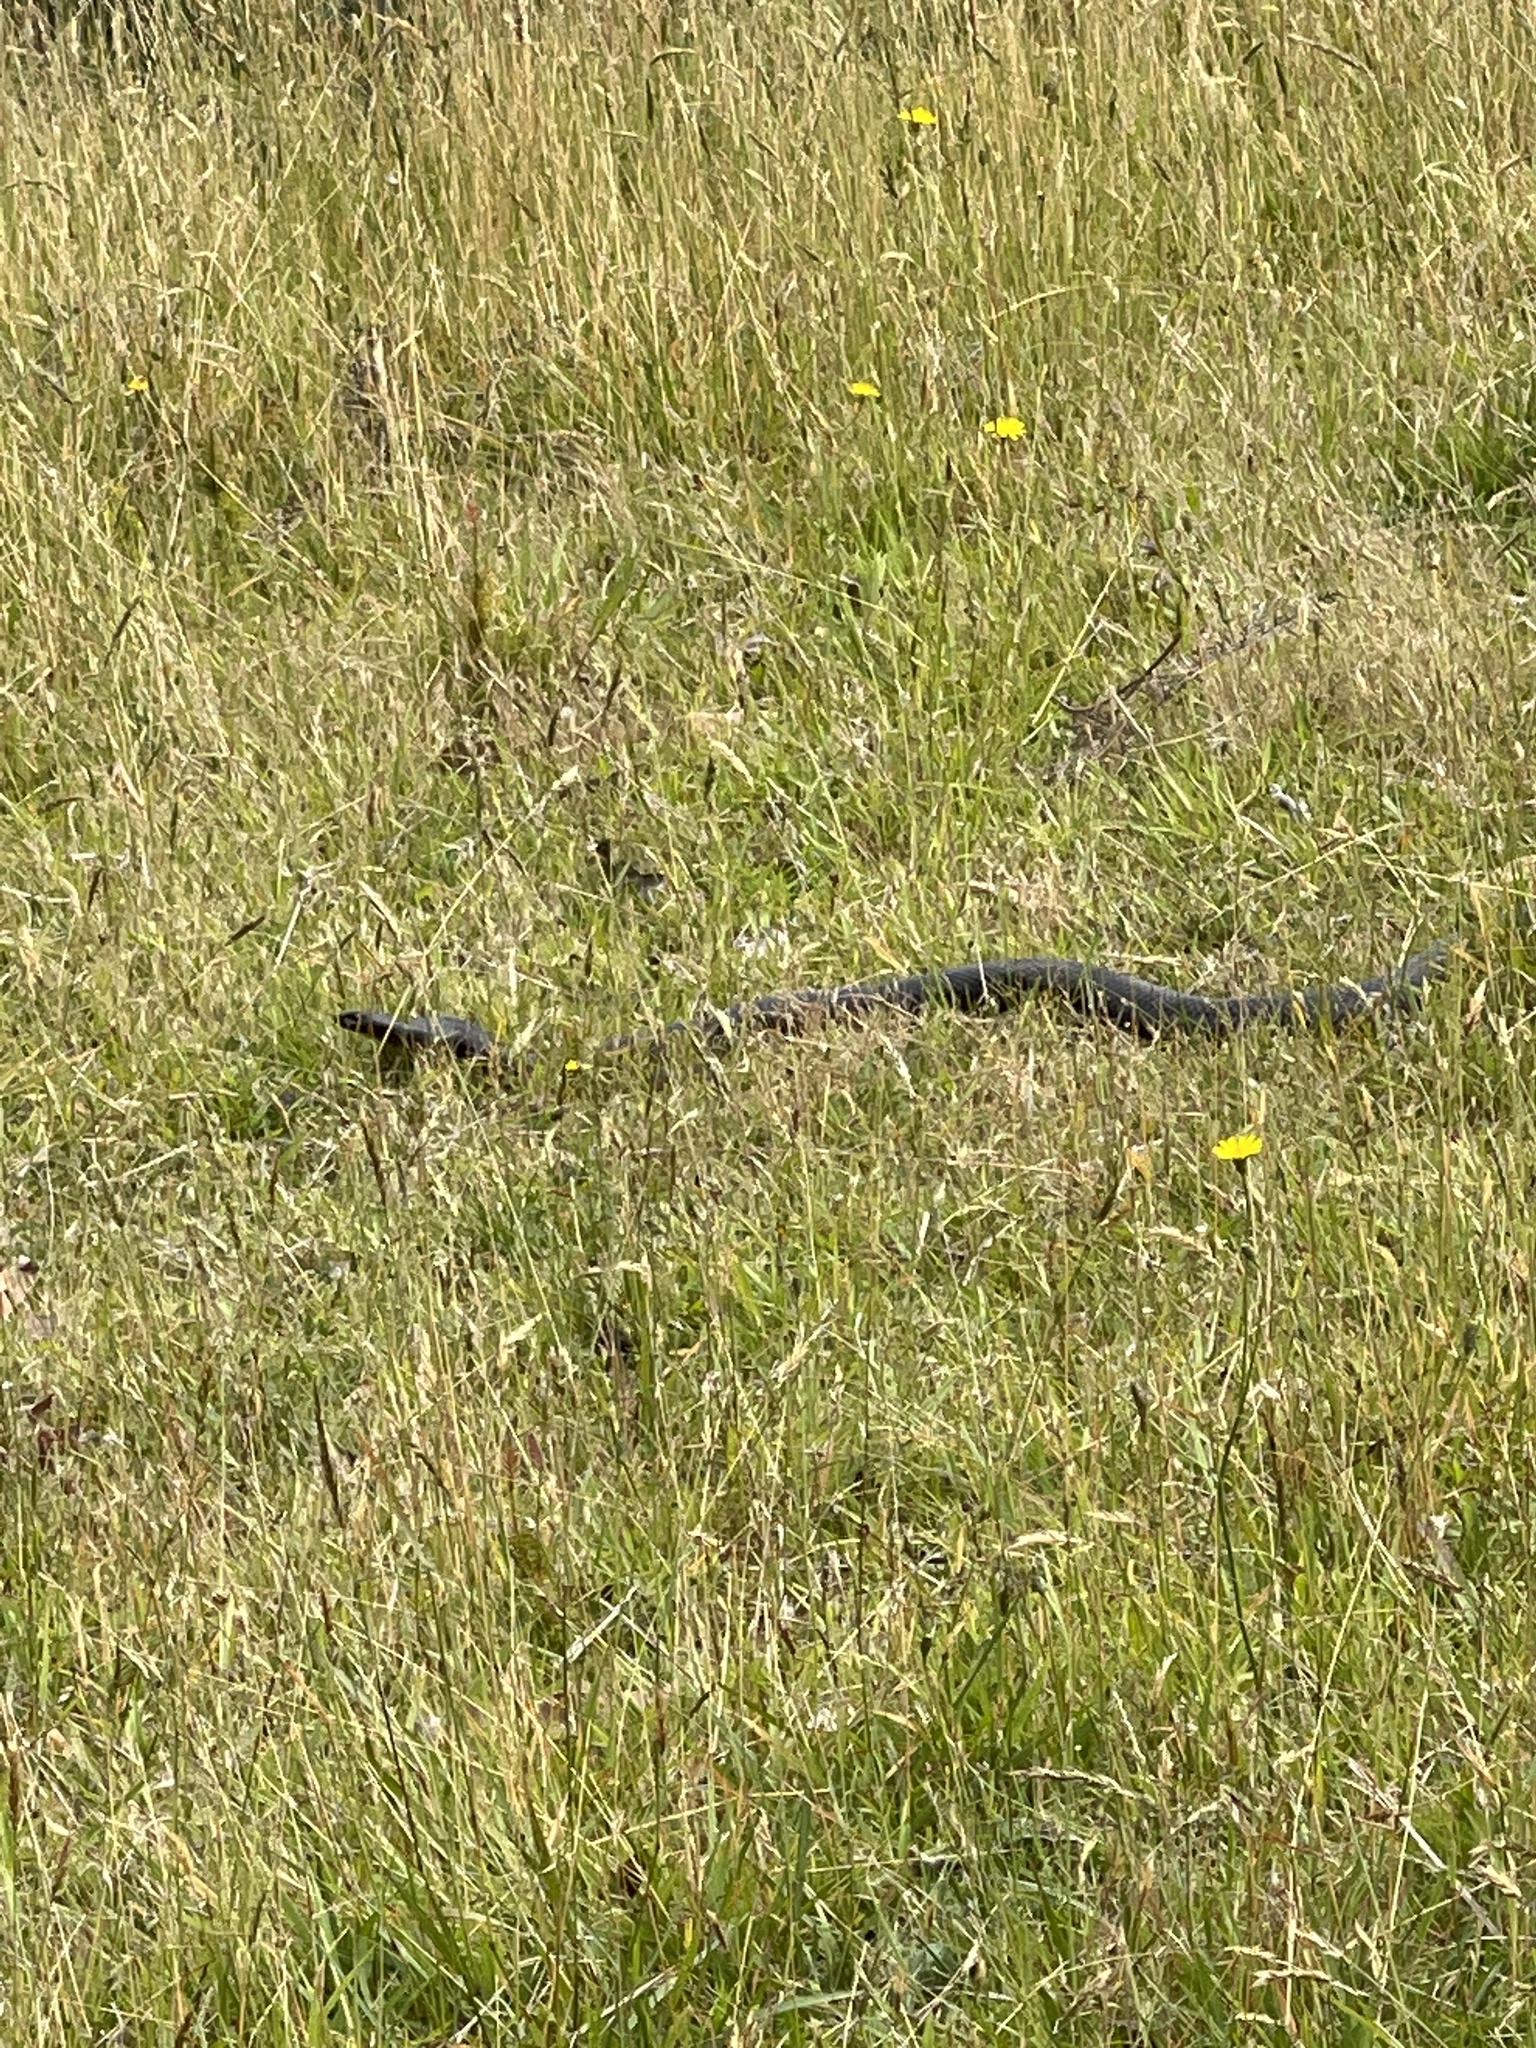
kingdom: Animalia
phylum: Chordata
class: Squamata
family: Elapidae
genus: Pseudechis
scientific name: Pseudechis porphyriacus
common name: Australian black snake
